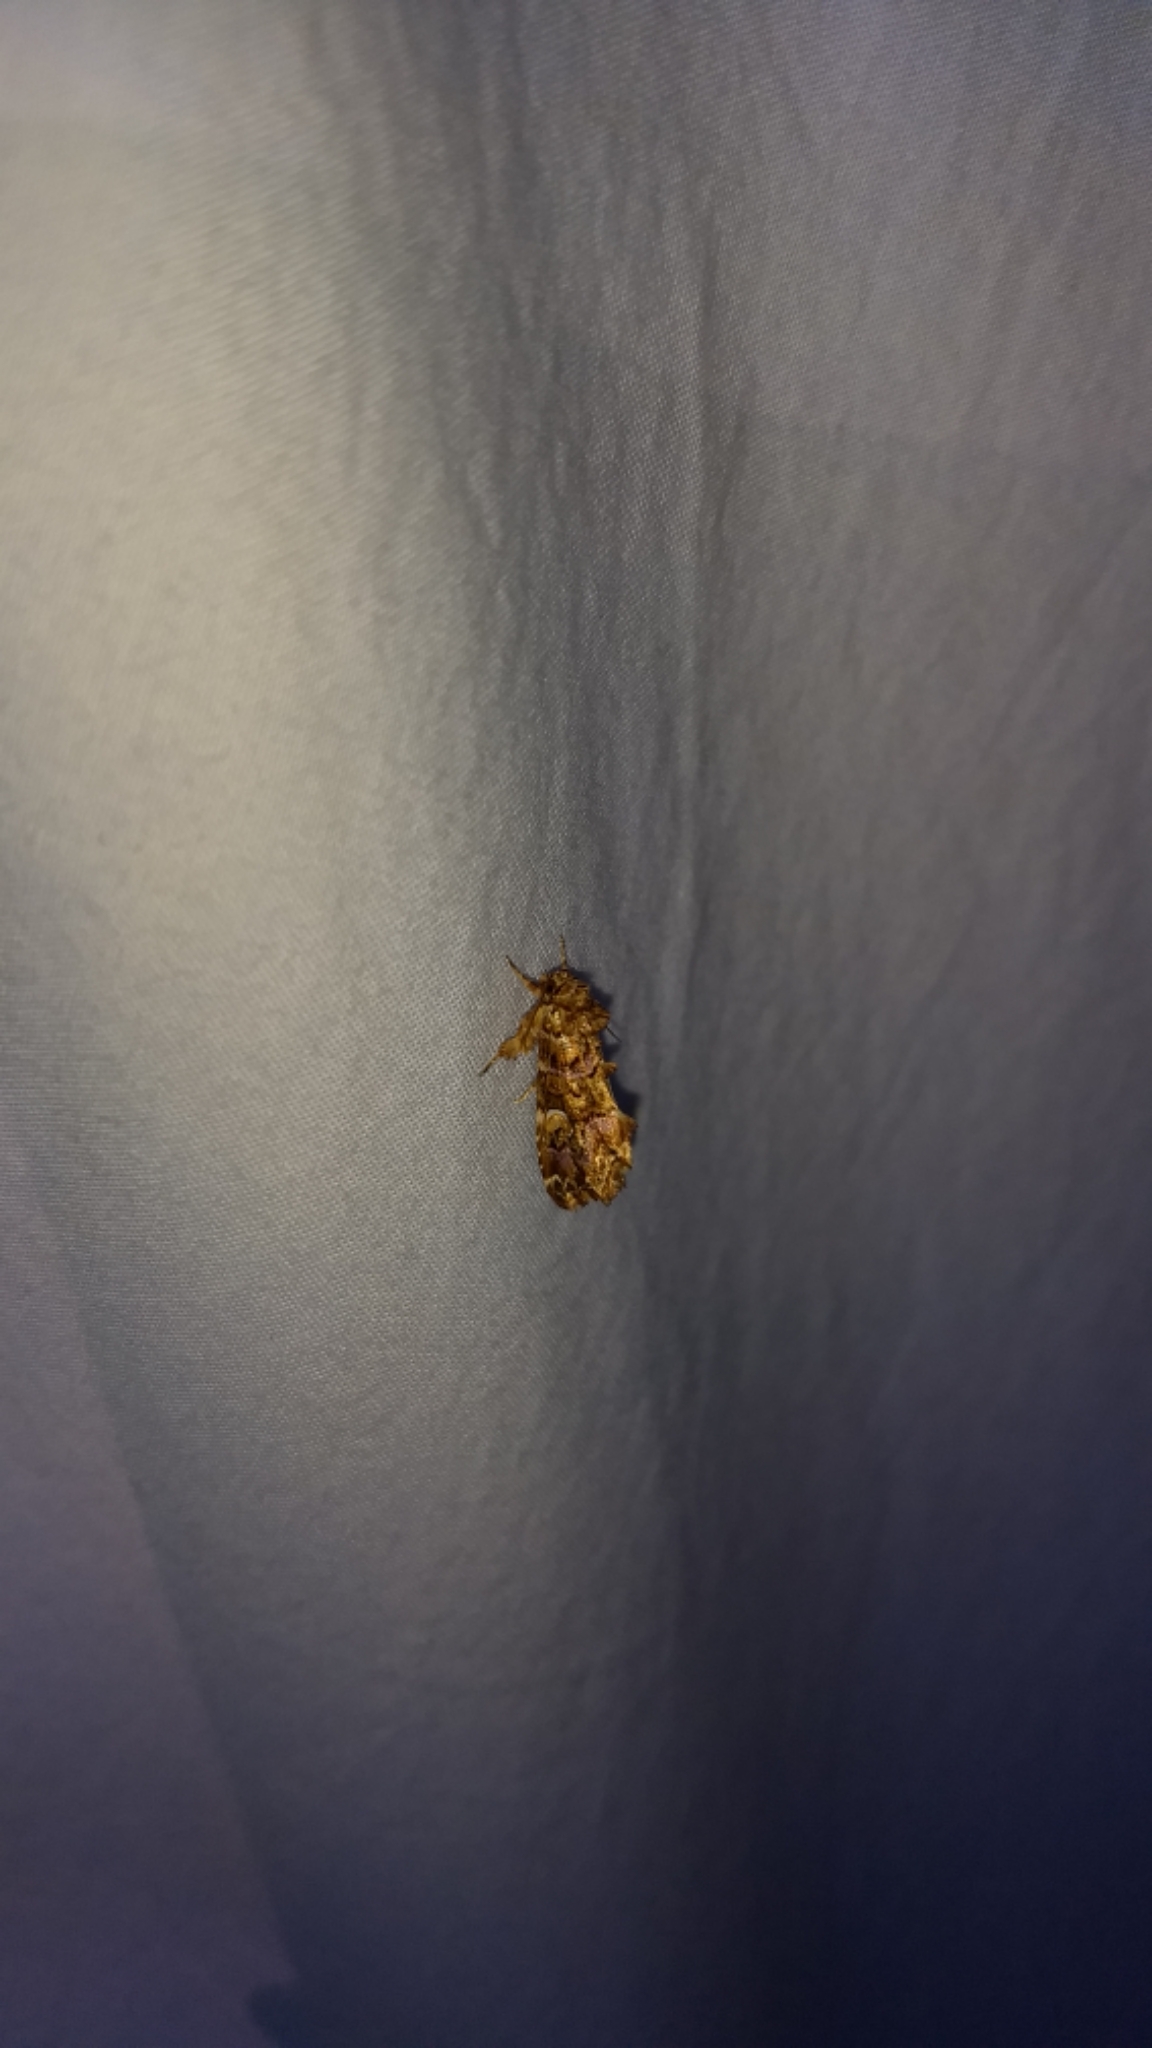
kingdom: Animalia
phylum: Arthropoda
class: Insecta
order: Lepidoptera
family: Noctuidae
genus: Callopistria
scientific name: Callopistria mollissima
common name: Pink-shaded fern moth
